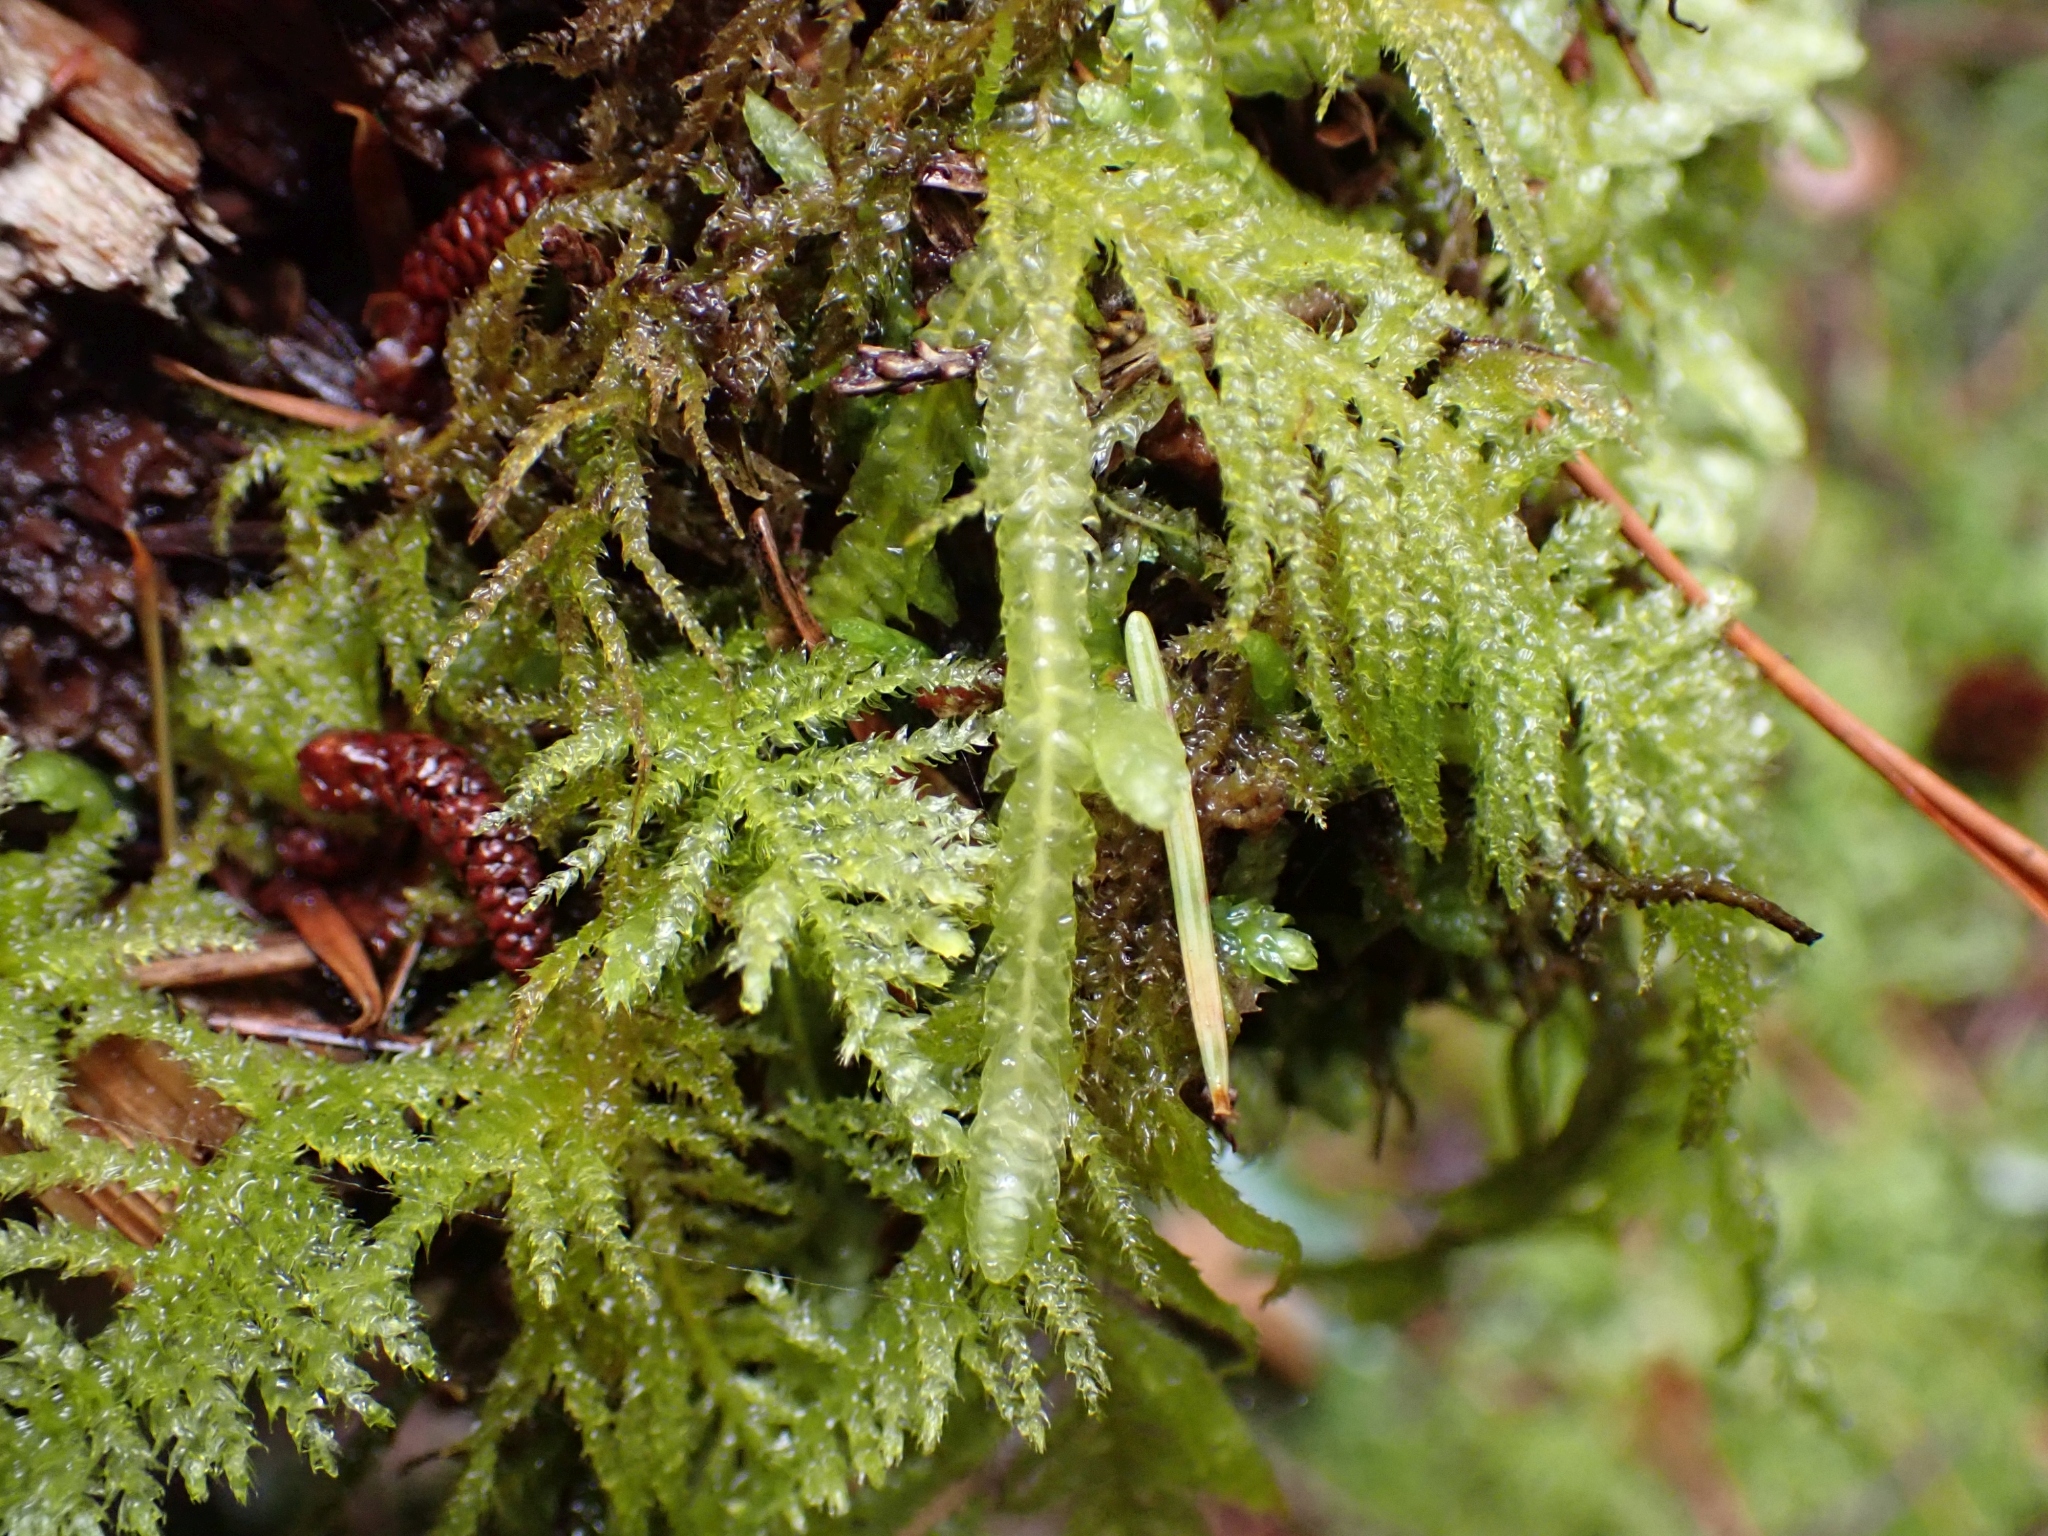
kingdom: Plantae
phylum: Bryophyta
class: Bryopsida
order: Hypnales
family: Plagiotheciaceae
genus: Plagiothecium
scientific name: Plagiothecium undulatum
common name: Waved silk-moss
